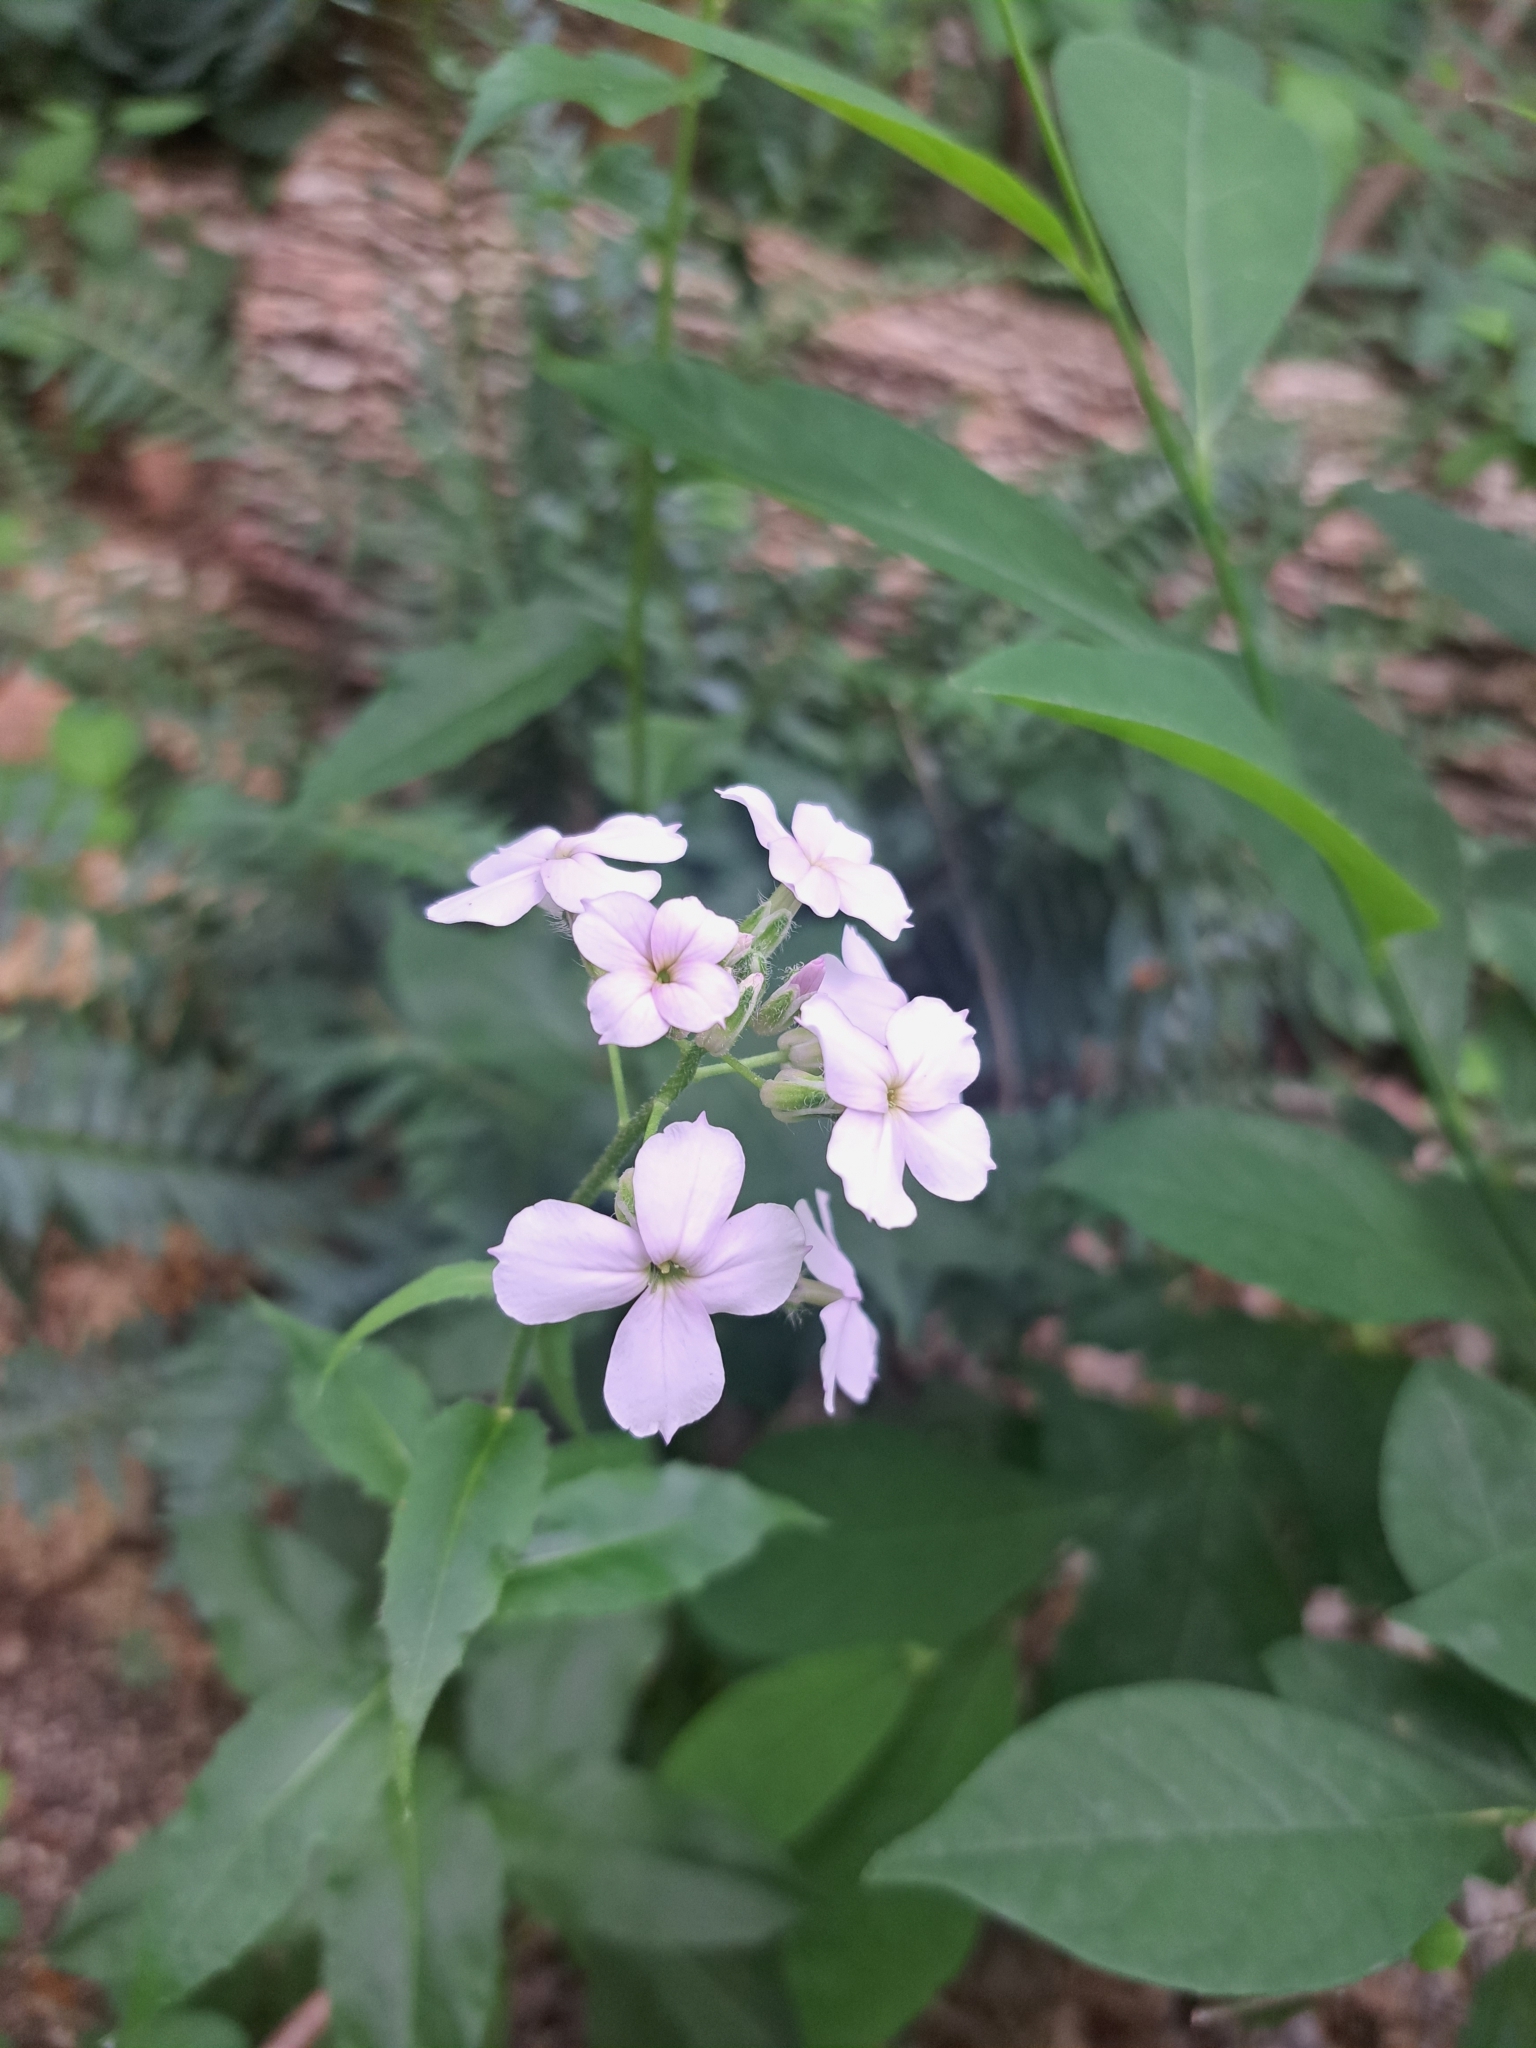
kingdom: Plantae
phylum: Tracheophyta
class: Magnoliopsida
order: Brassicales
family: Brassicaceae
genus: Hesperis
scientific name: Hesperis matronalis
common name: Dame's-violet
